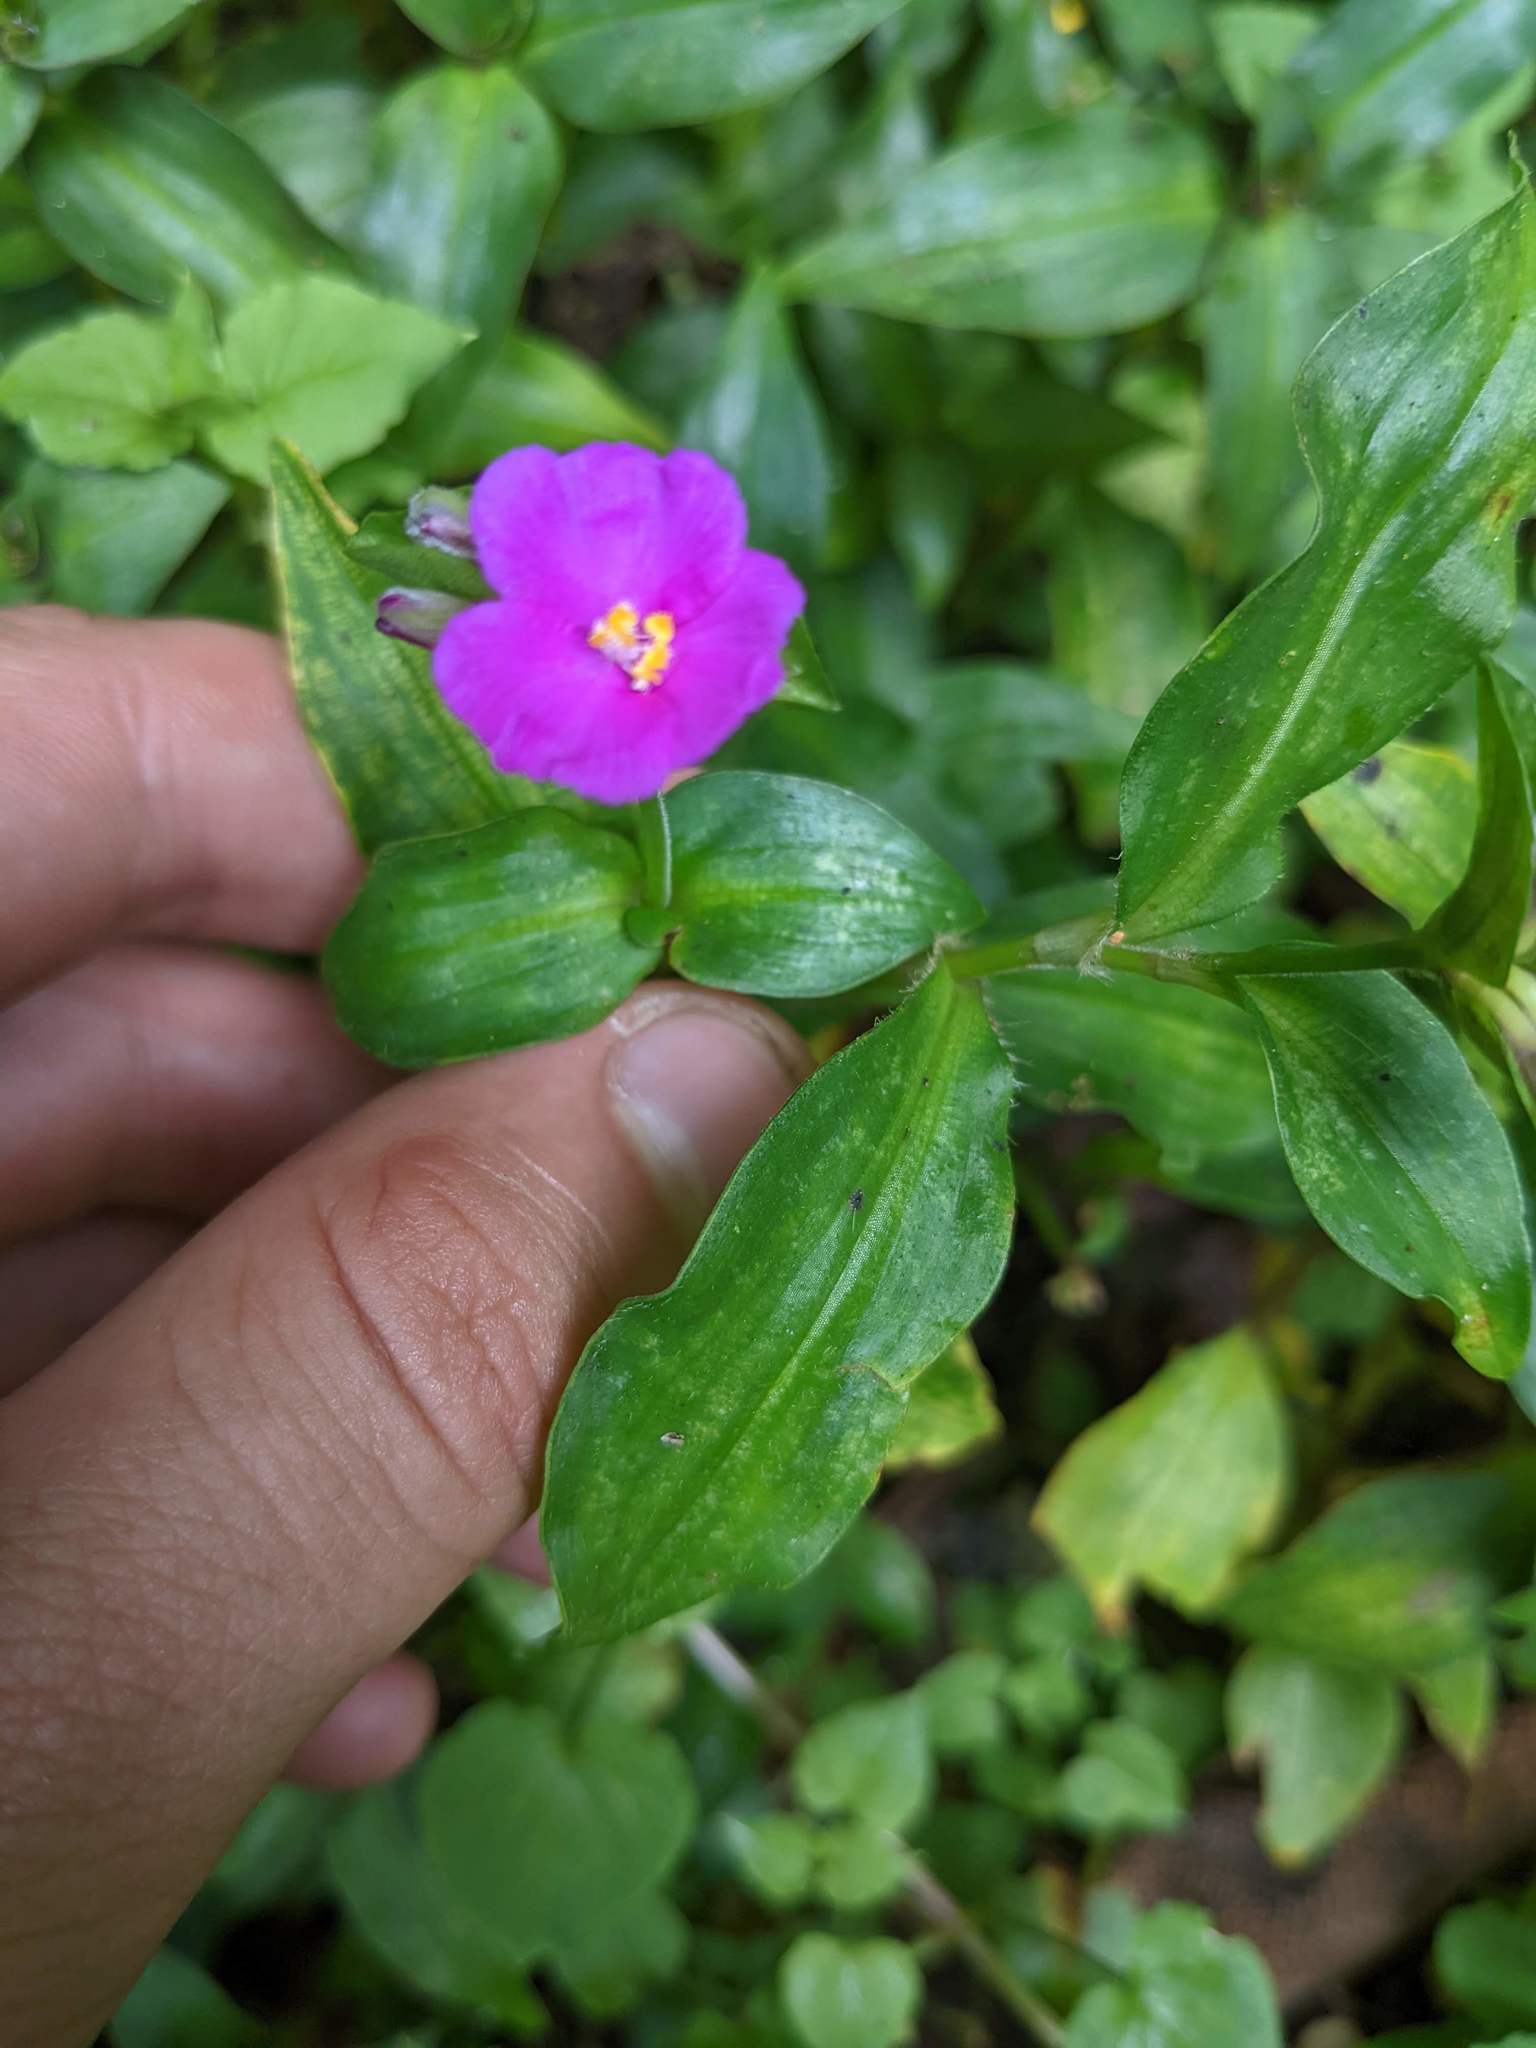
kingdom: Plantae
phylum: Tracheophyta
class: Liliopsida
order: Commelinales
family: Commelinaceae
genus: Tradescantia
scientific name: Tradescantia poelliae
